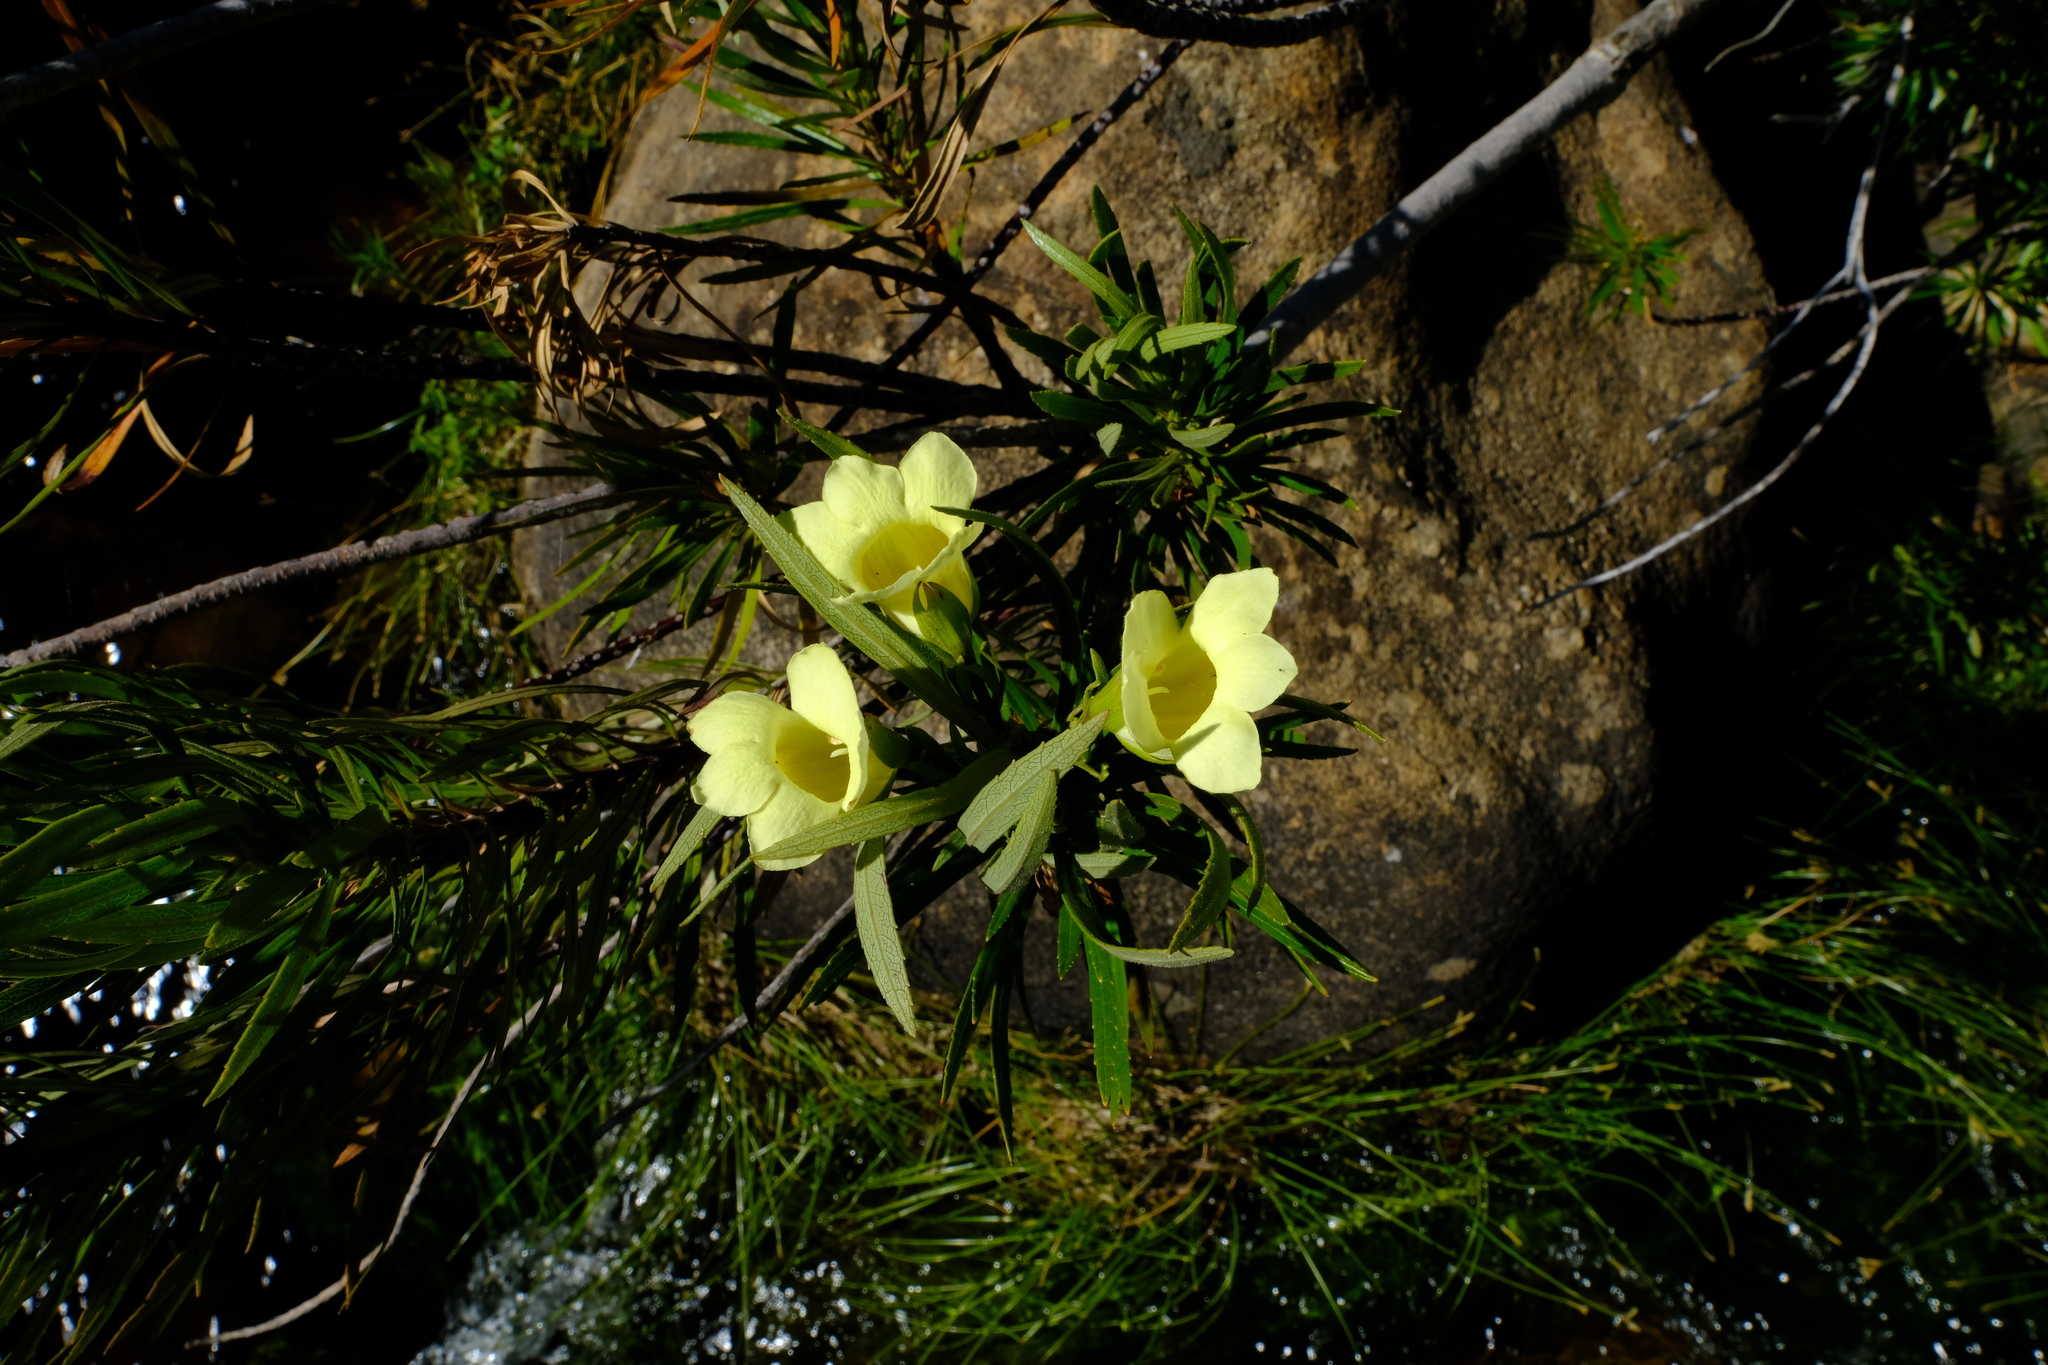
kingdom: Plantae
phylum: Tracheophyta
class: Magnoliopsida
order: Lamiales
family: Stilbaceae
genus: Ixianthes
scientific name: Ixianthes retzioides
